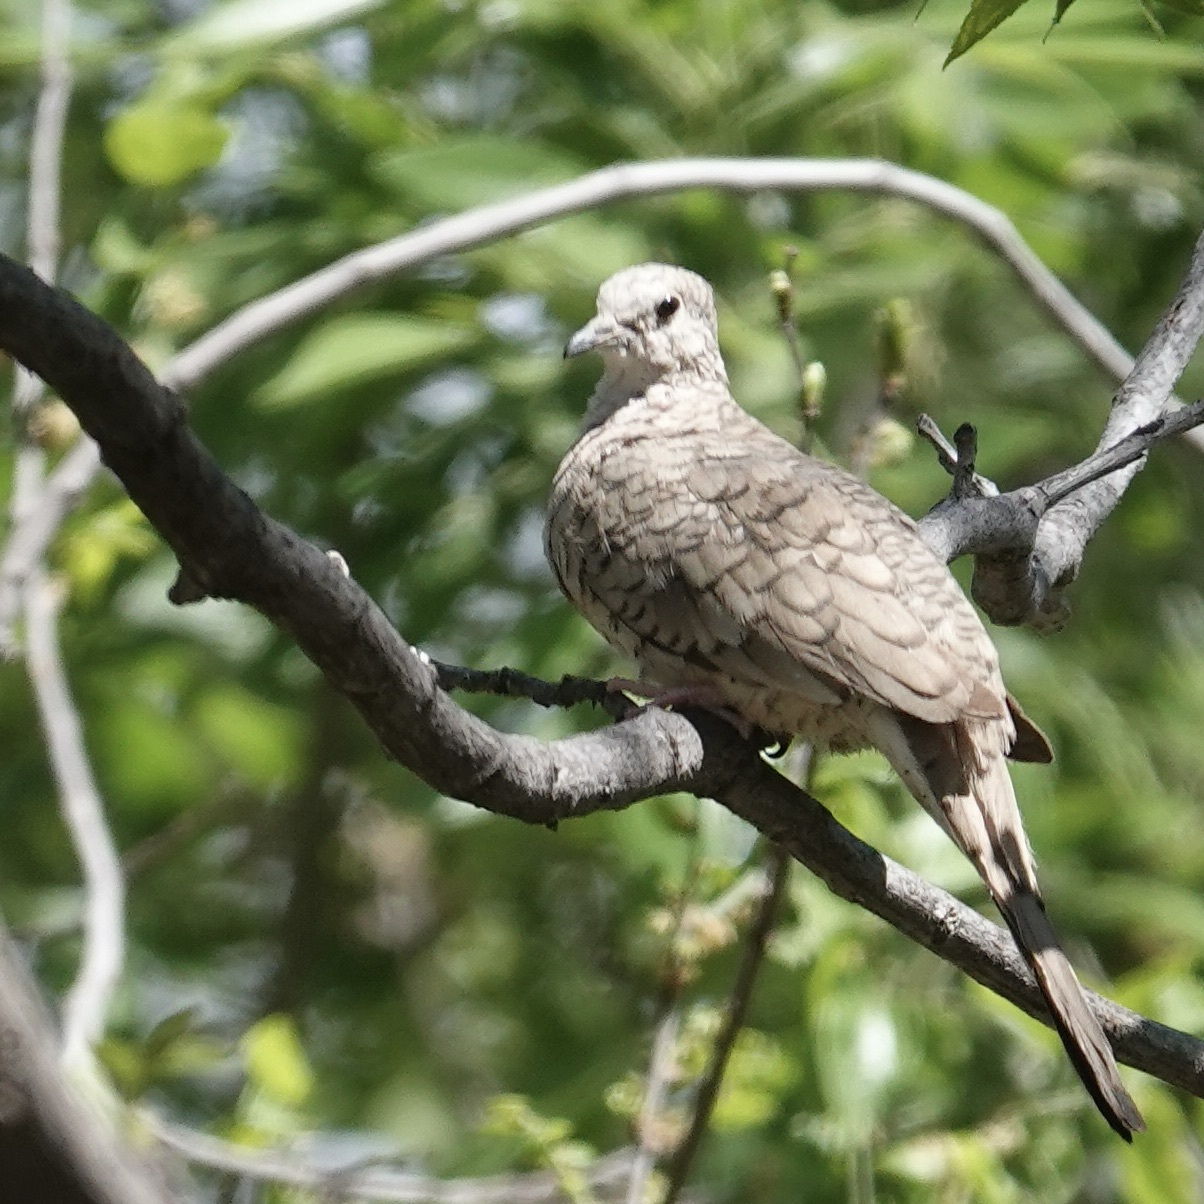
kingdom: Animalia
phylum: Chordata
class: Aves
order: Columbiformes
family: Columbidae
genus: Columbina
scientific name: Columbina inca
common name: Inca dove
